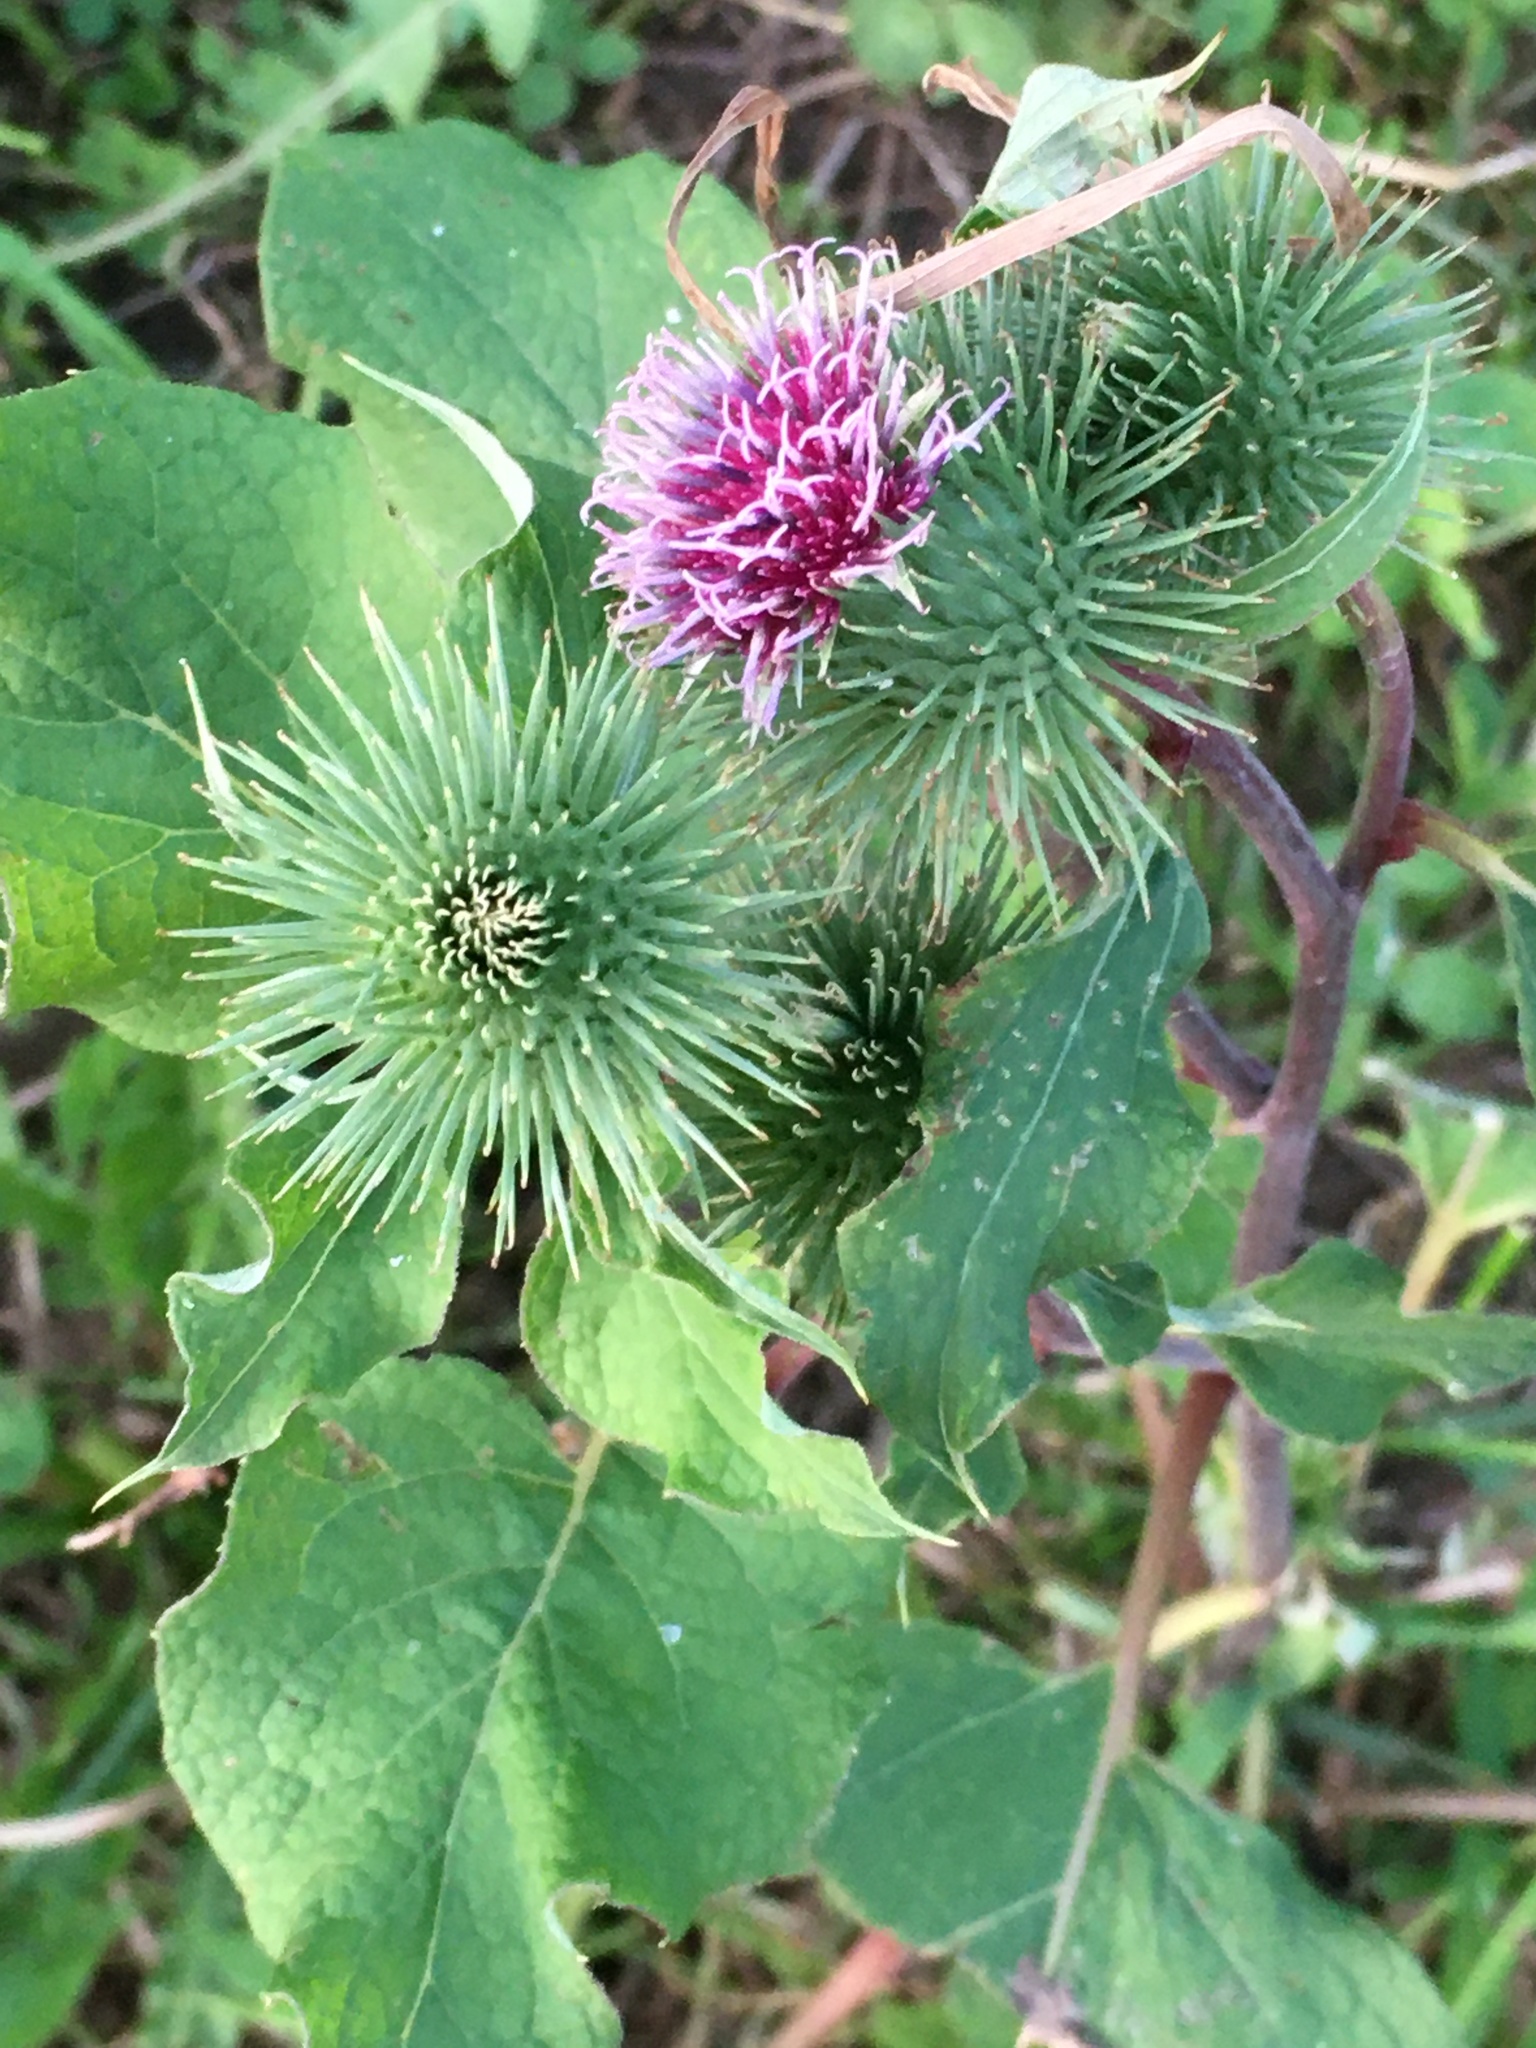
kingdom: Plantae
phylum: Tracheophyta
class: Magnoliopsida
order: Asterales
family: Asteraceae
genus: Arctium
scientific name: Arctium lappa
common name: Greater burdock
